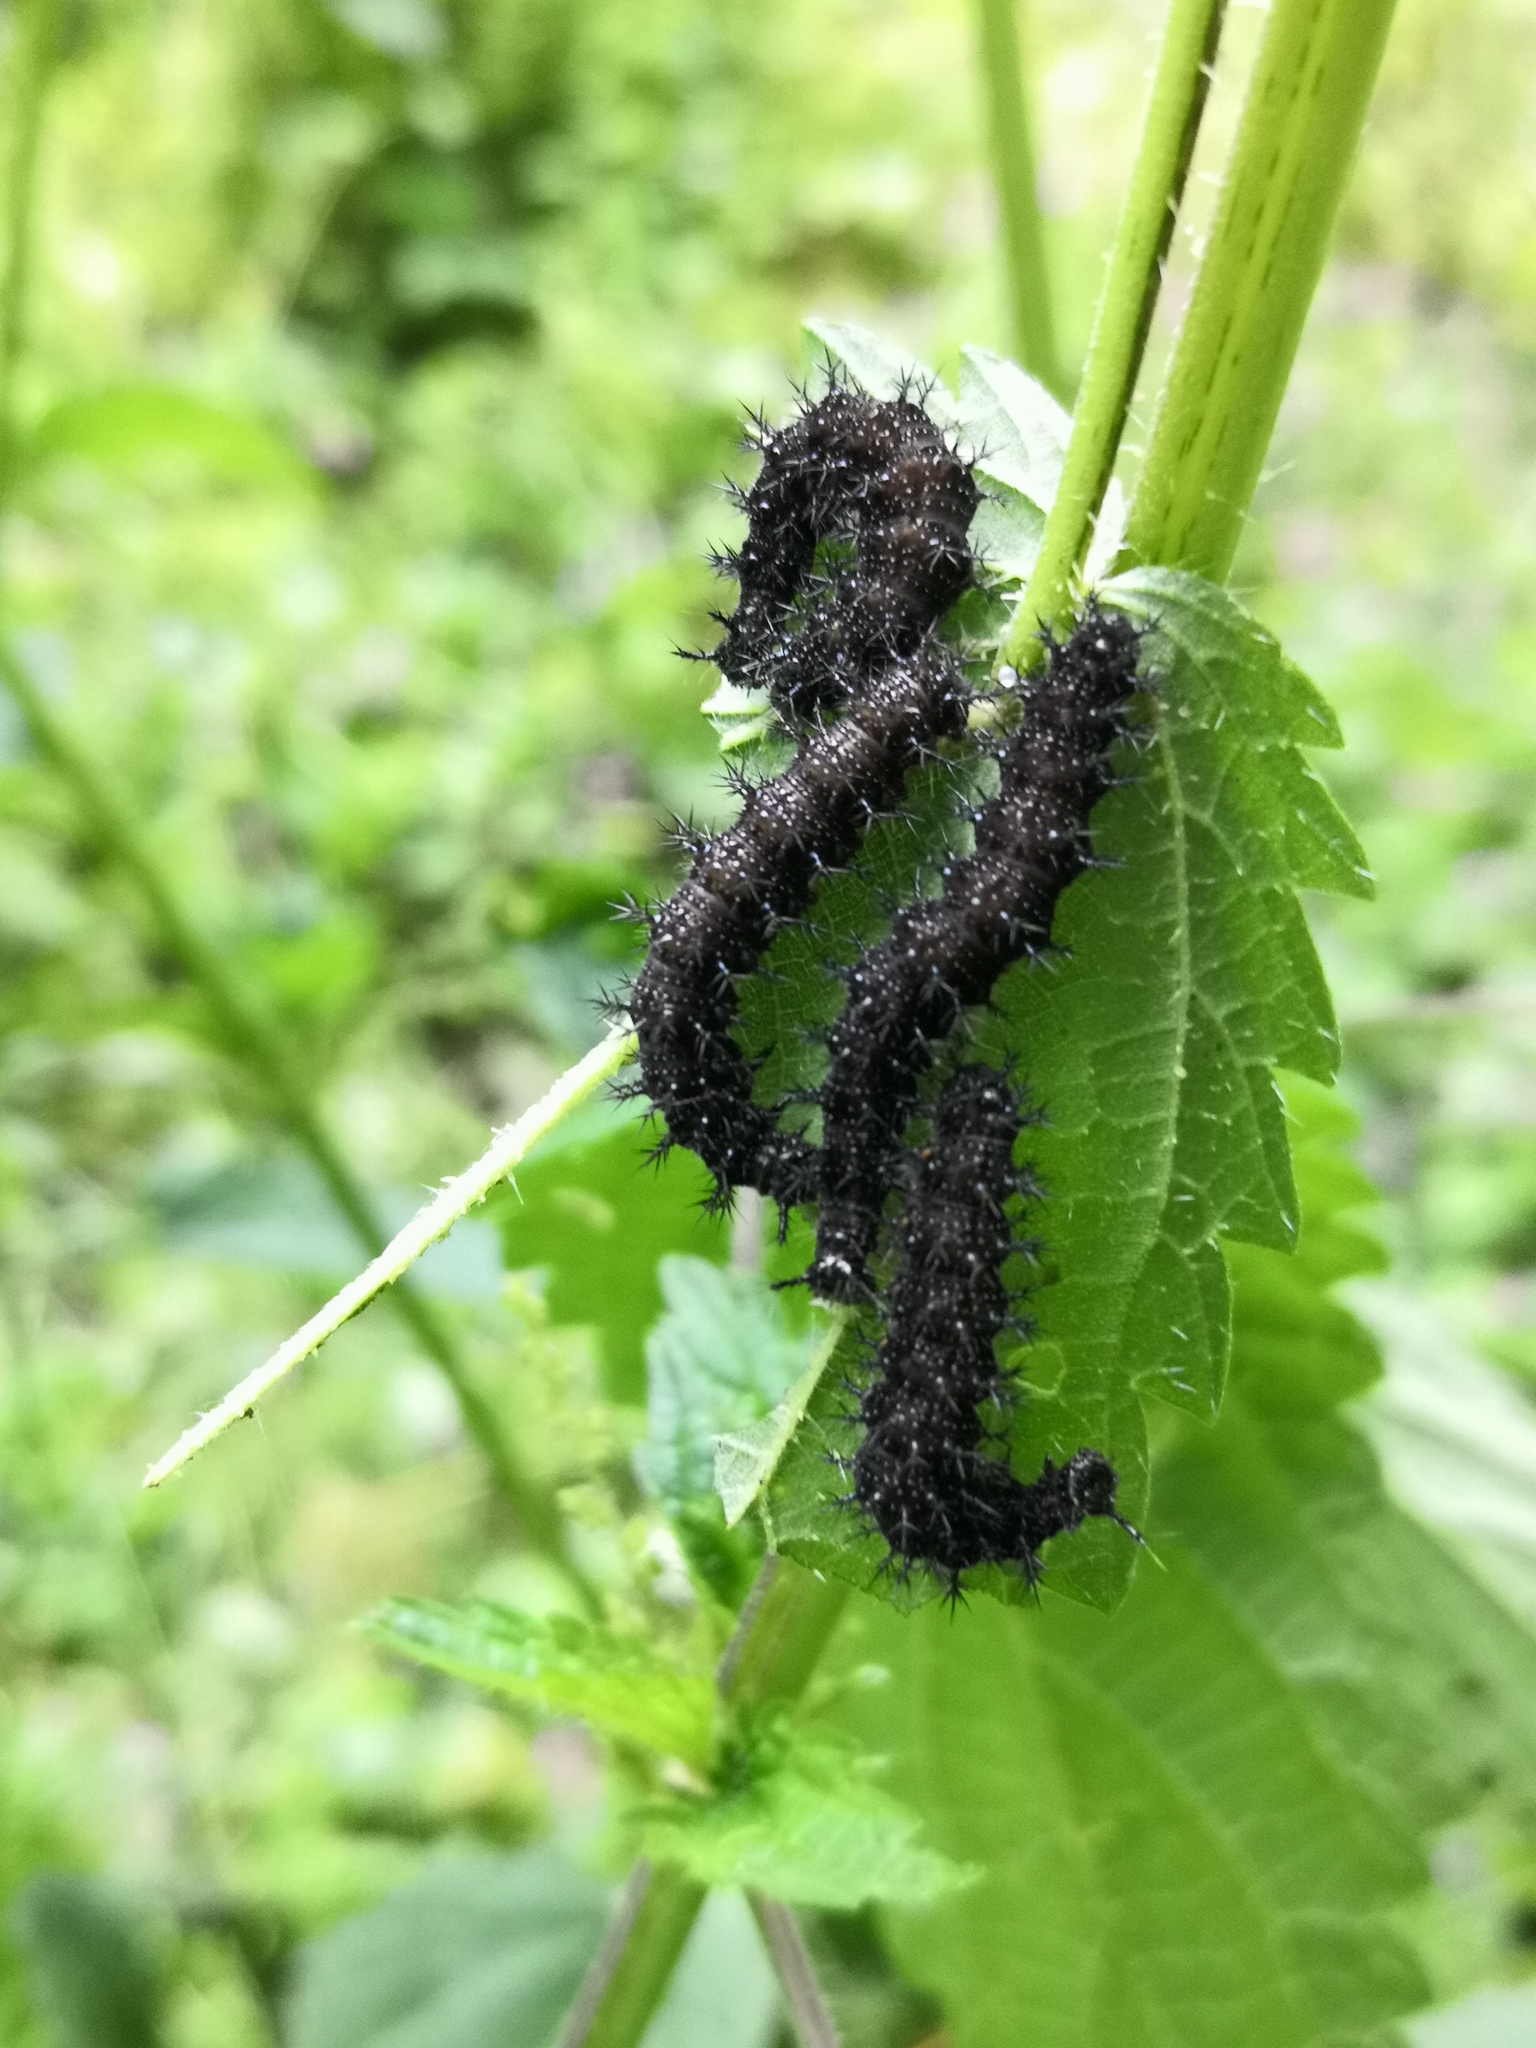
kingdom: Animalia
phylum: Arthropoda
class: Insecta
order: Lepidoptera
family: Nymphalidae
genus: Araschnia
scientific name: Araschnia levana
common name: Map butterfly
